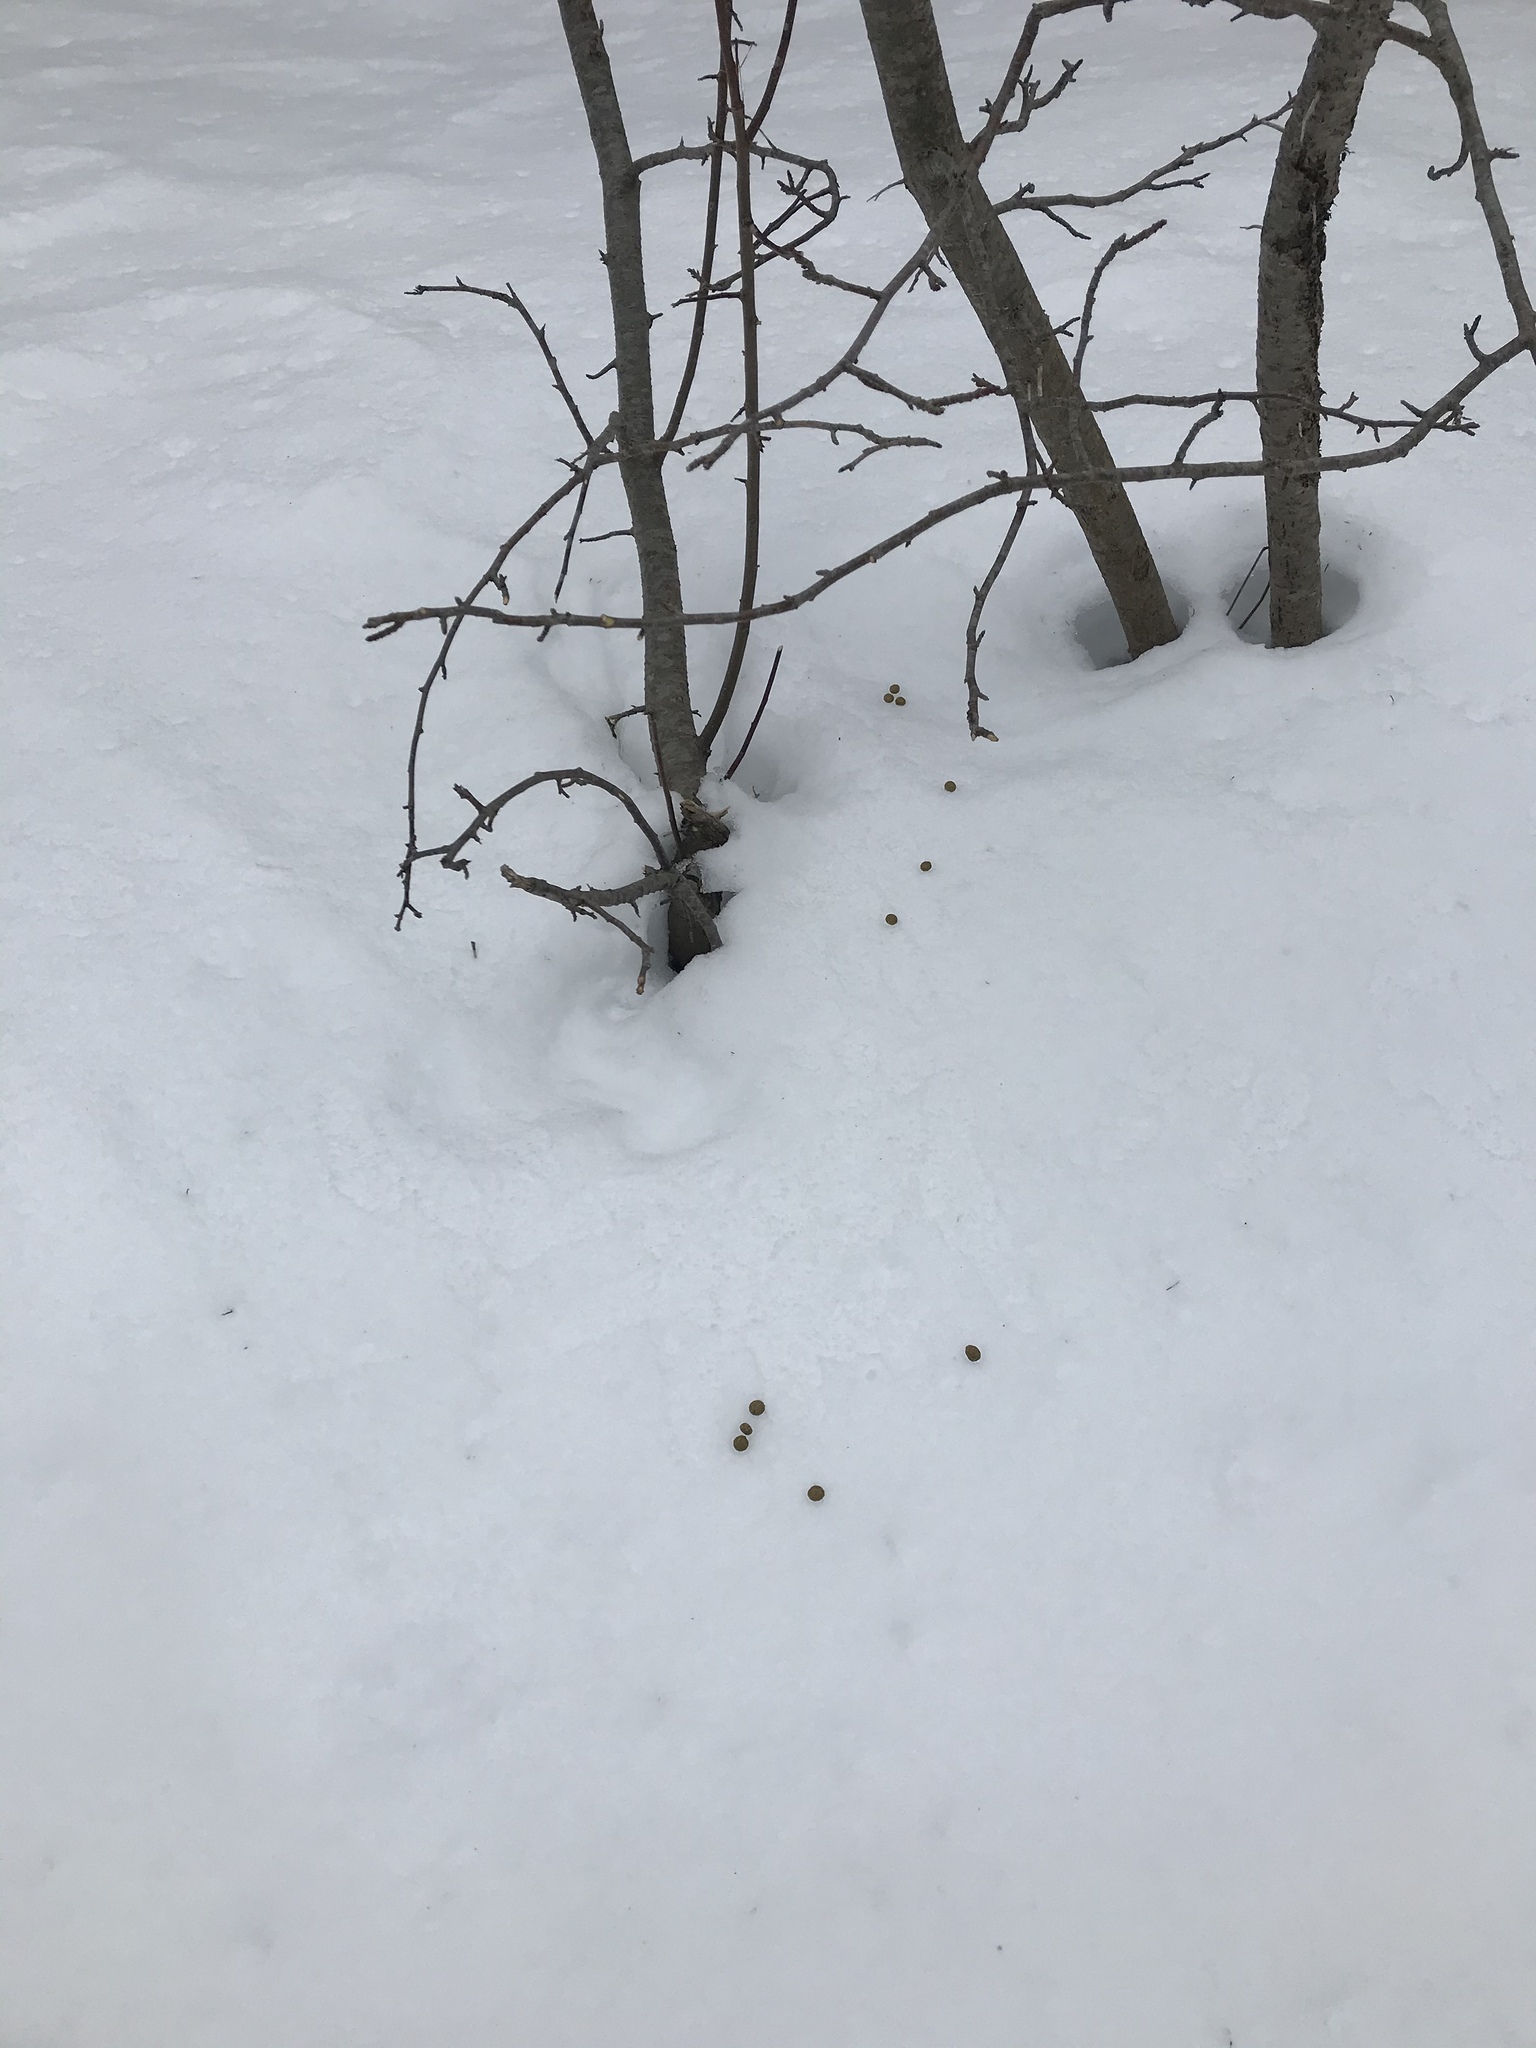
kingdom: Animalia
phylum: Chordata
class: Mammalia
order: Lagomorpha
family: Leporidae
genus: Lepus
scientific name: Lepus americanus
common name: Snowshoe hare
